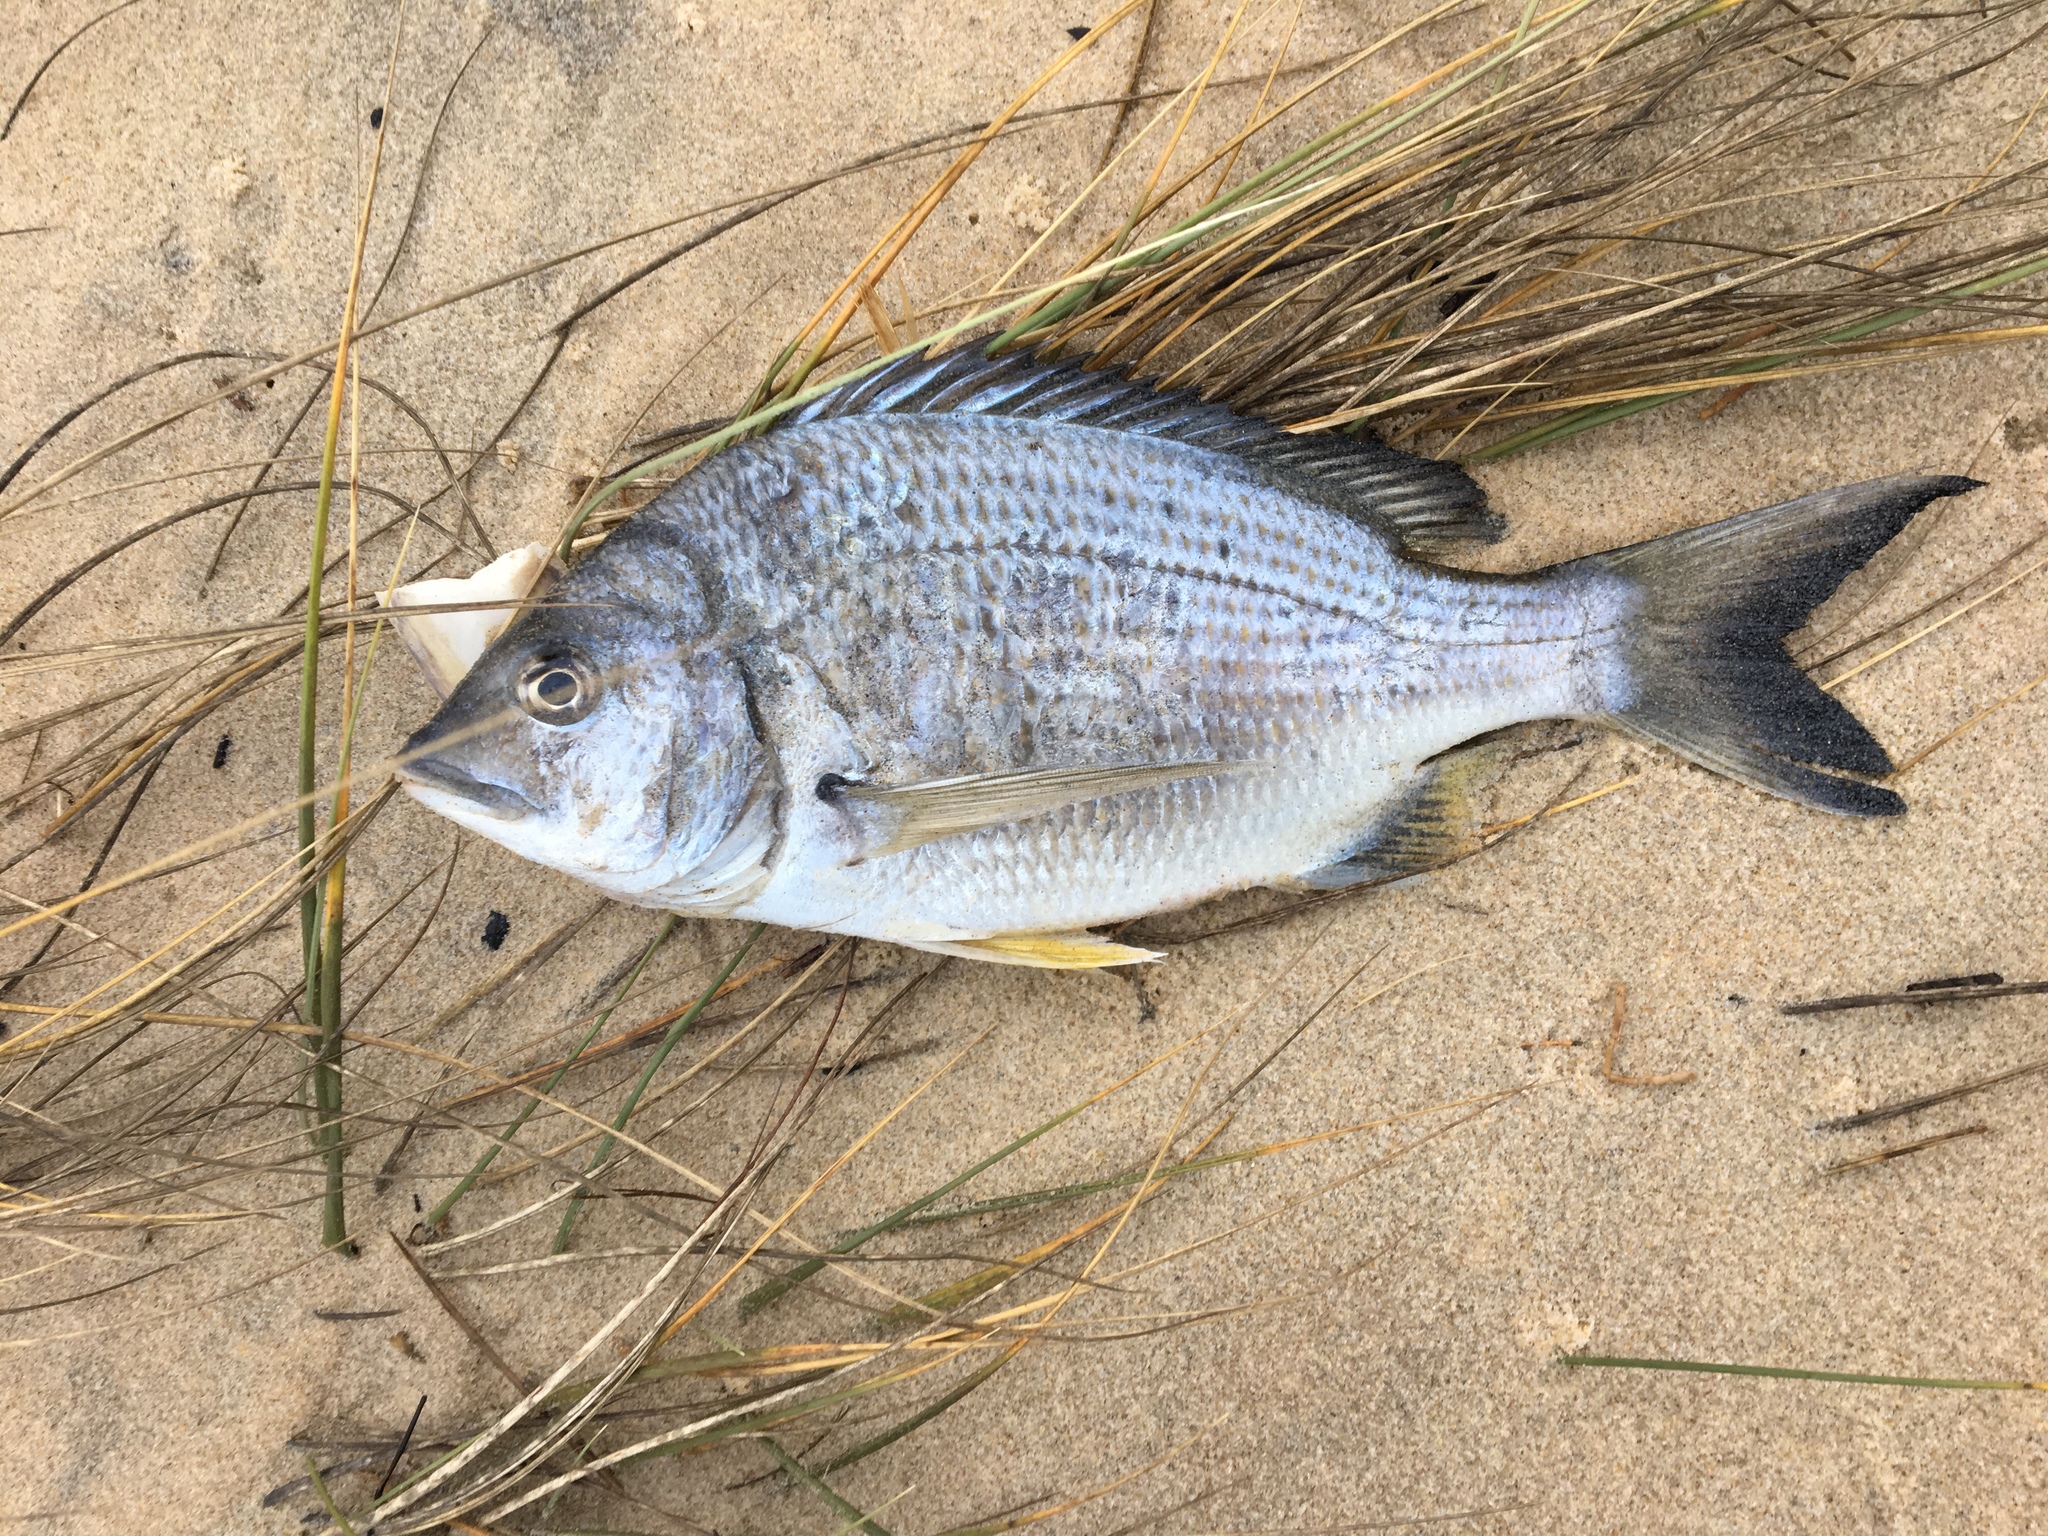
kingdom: Animalia
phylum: Chordata
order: Perciformes
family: Sparidae
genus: Acanthopagrus
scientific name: Acanthopagrus australis
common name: Surf bream
